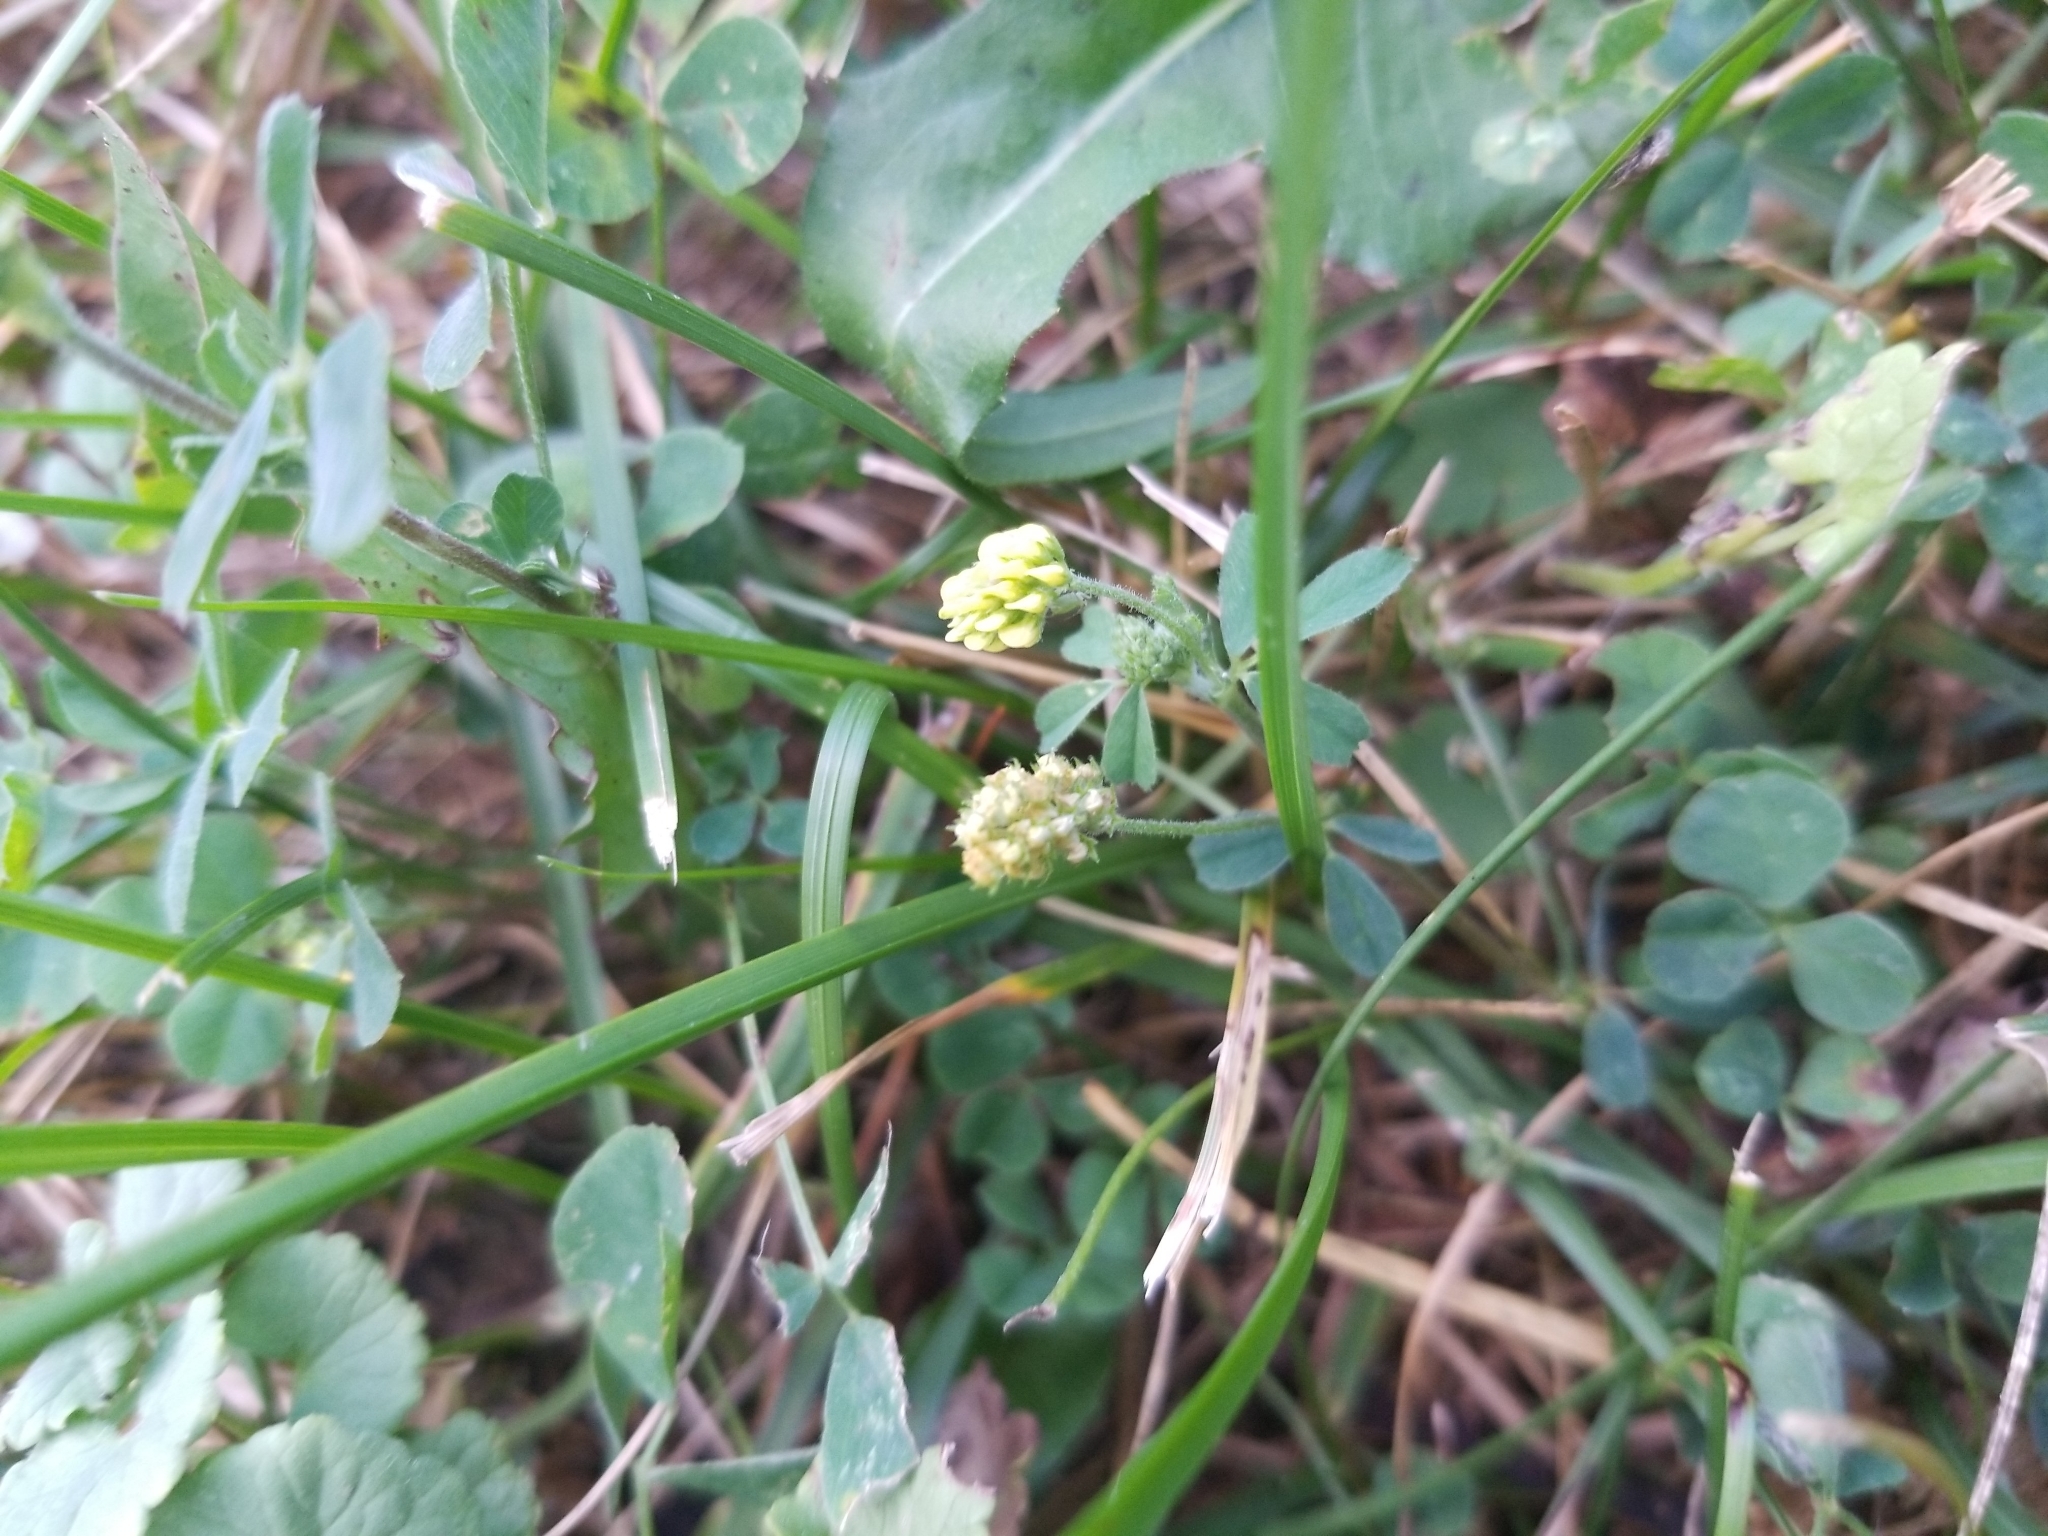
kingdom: Plantae
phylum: Tracheophyta
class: Magnoliopsida
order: Fabales
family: Fabaceae
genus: Medicago
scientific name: Medicago lupulina
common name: Black medick
